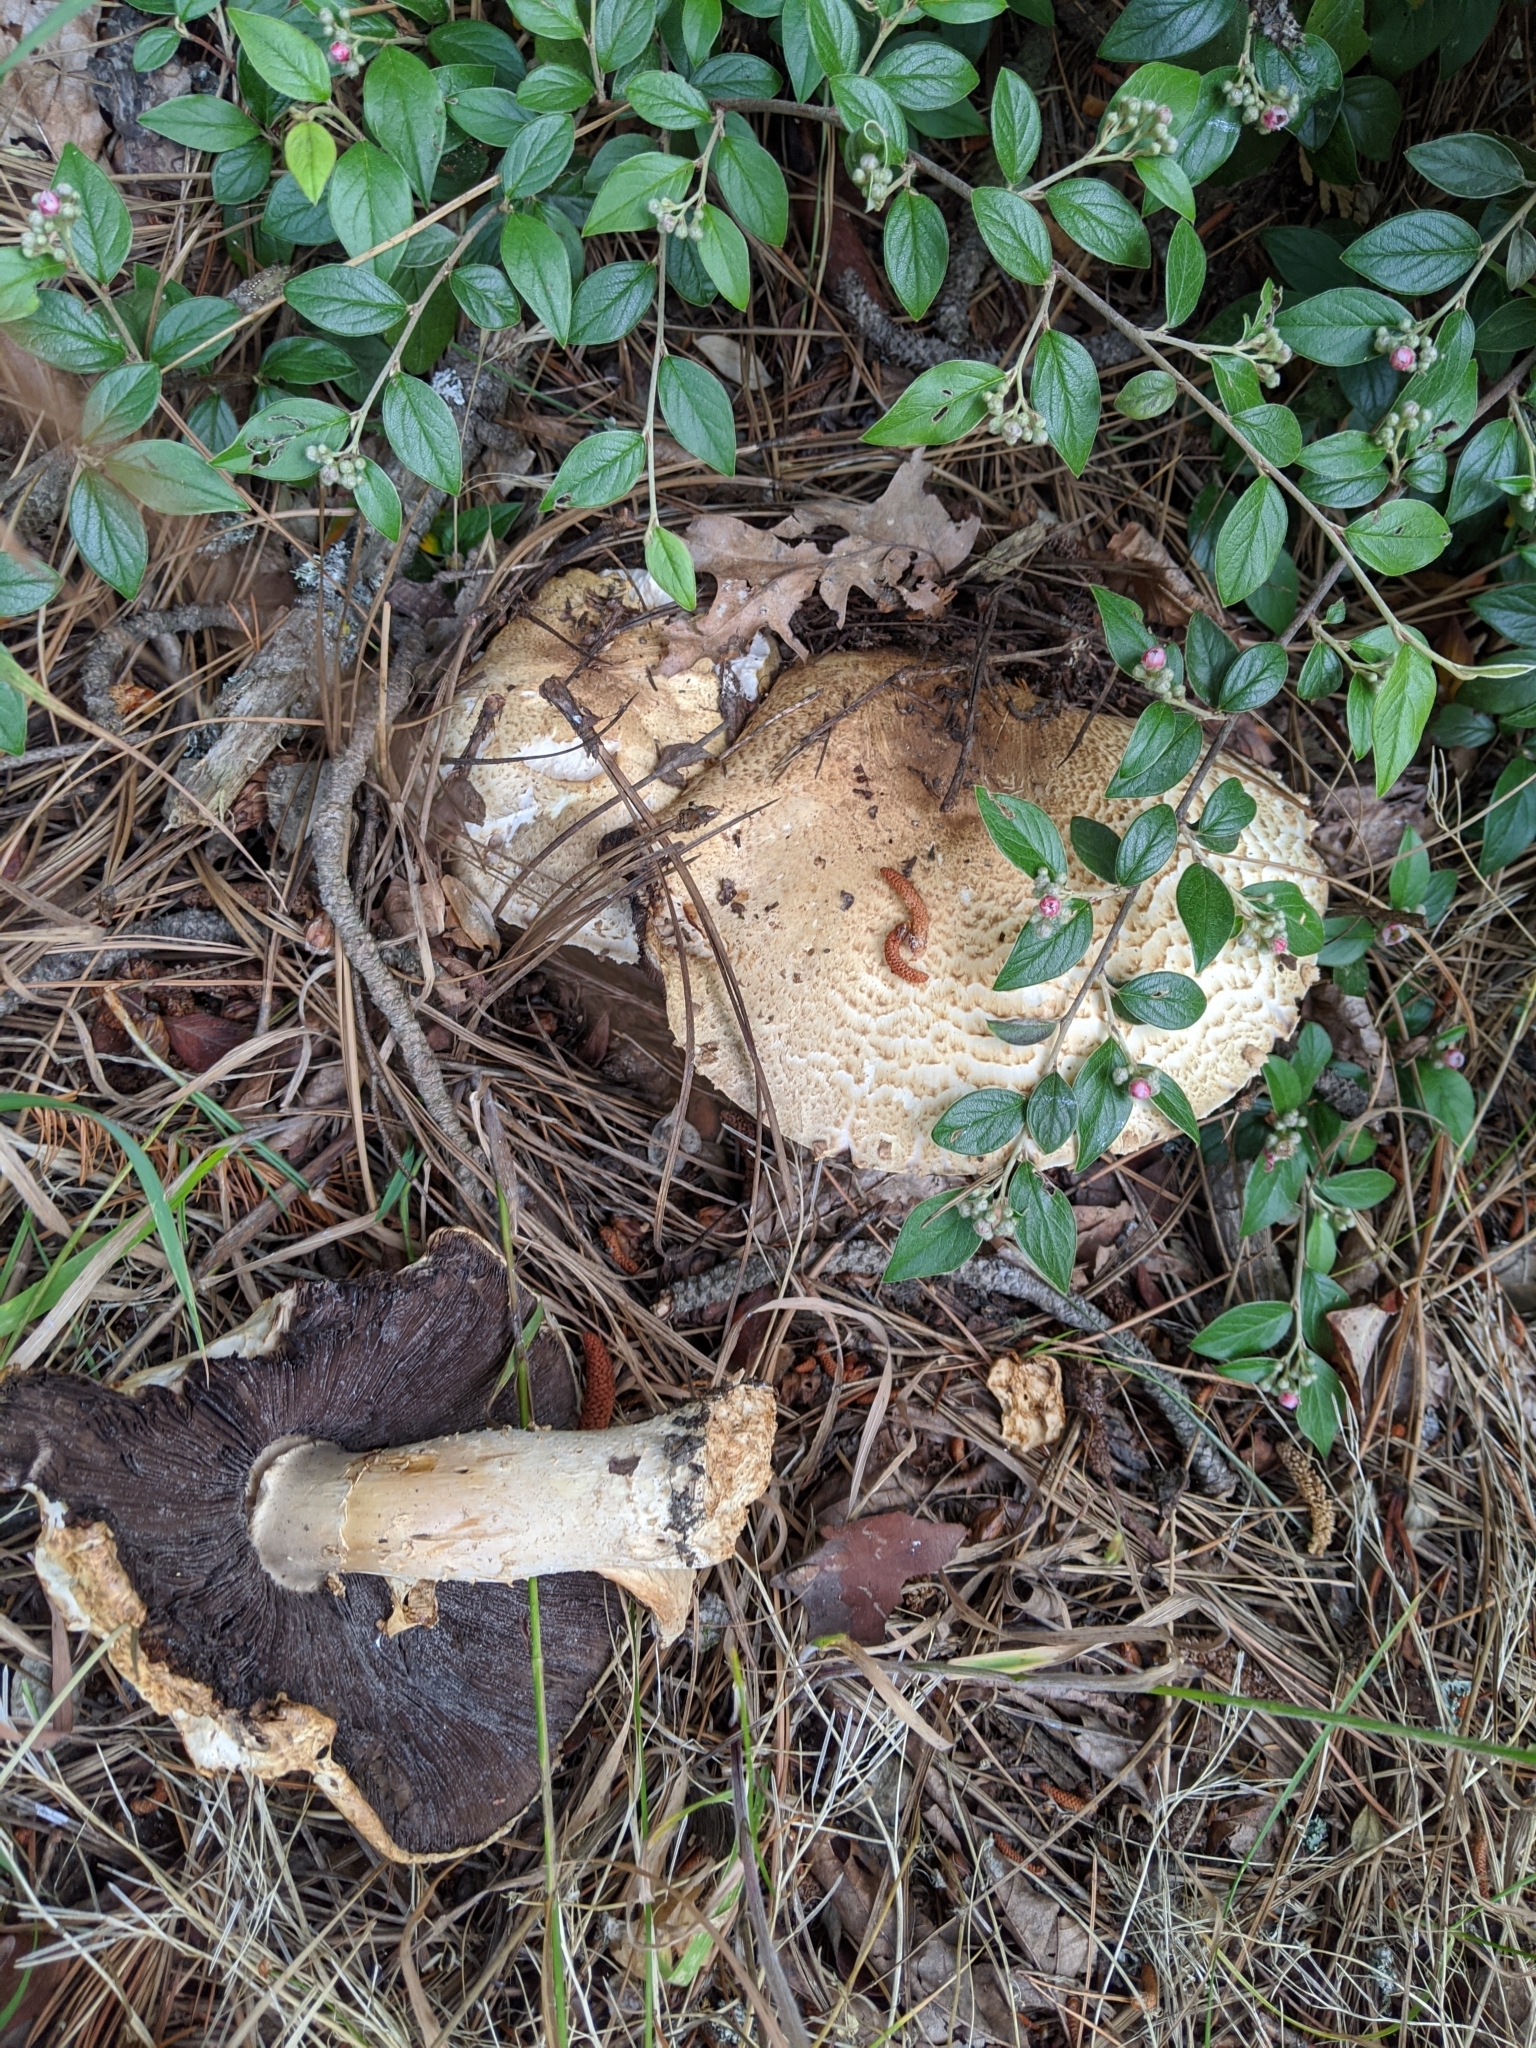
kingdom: Fungi
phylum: Basidiomycota
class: Agaricomycetes
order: Agaricales
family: Agaricaceae
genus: Agaricus
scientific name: Agaricus augustus
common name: Prince
